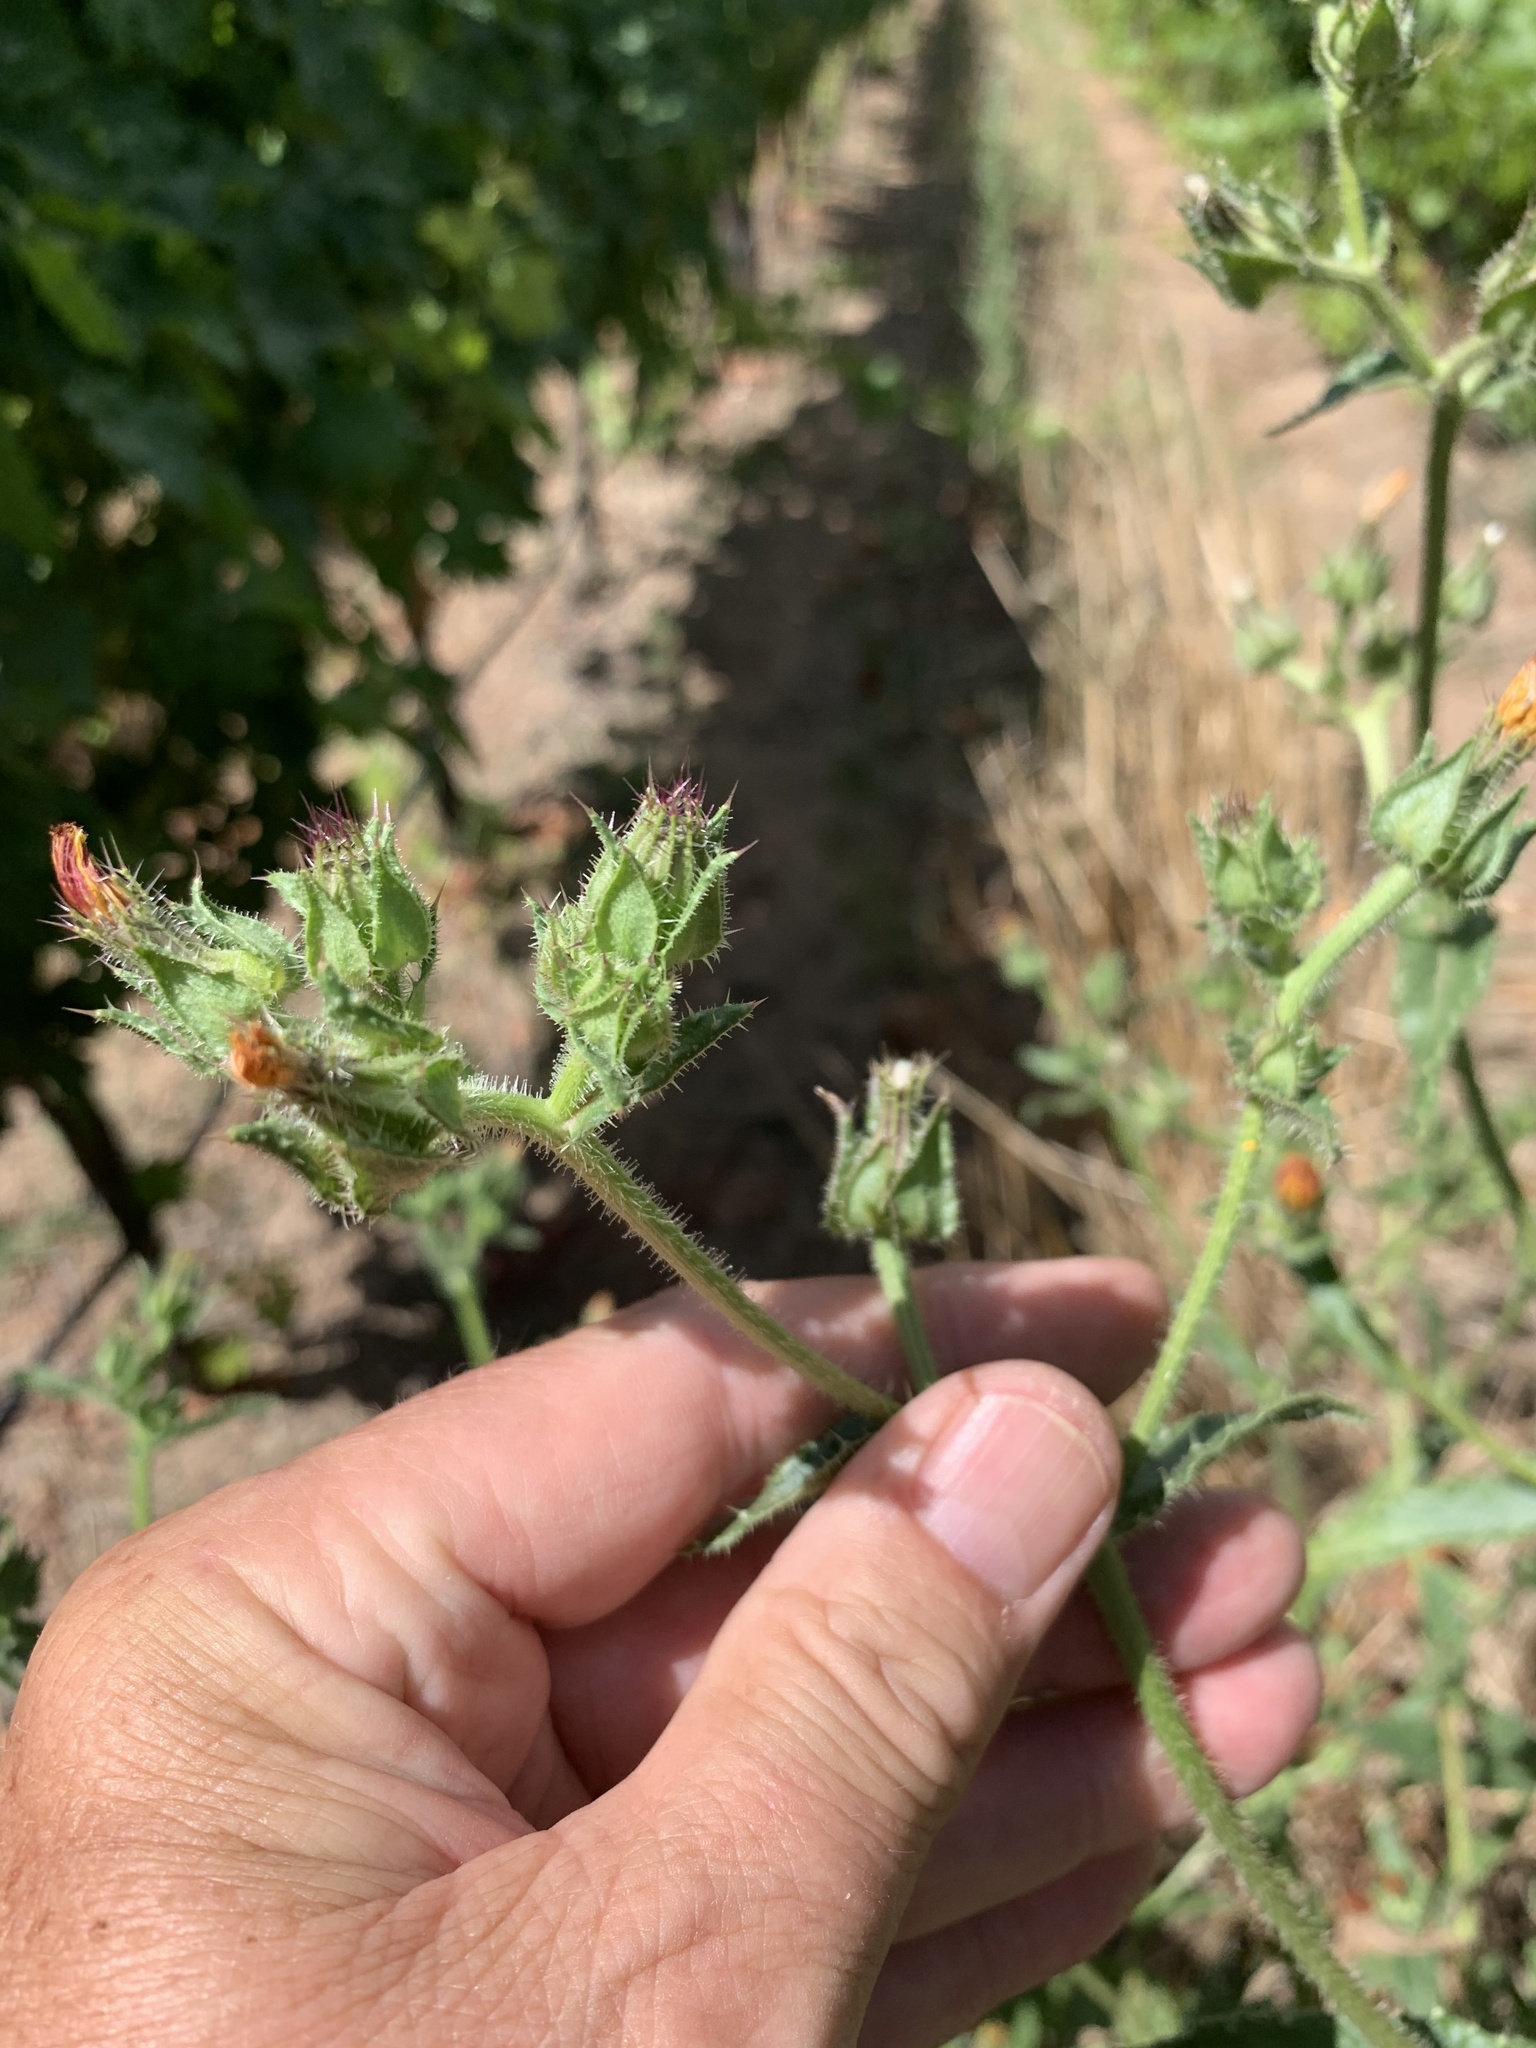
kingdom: Plantae
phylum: Tracheophyta
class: Magnoliopsida
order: Asterales
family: Asteraceae
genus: Helminthotheca
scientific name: Helminthotheca echioides
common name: Ox-tongue
